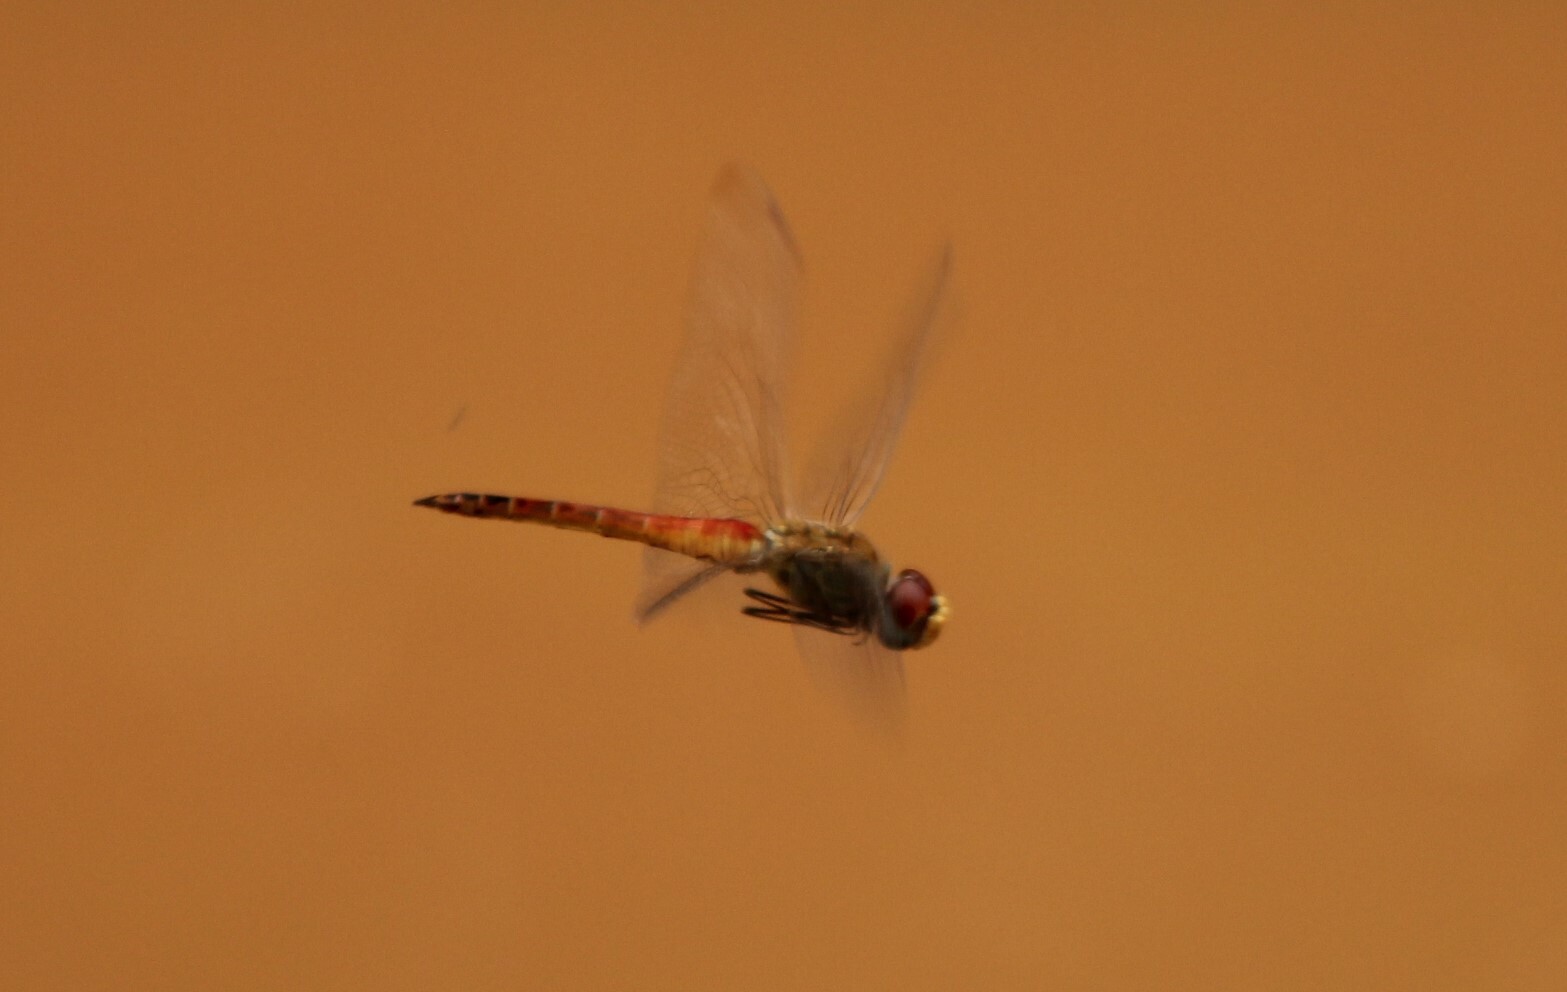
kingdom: Animalia
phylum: Arthropoda
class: Insecta
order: Odonata
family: Libellulidae
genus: Pantala
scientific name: Pantala flavescens
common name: Wandering glider
